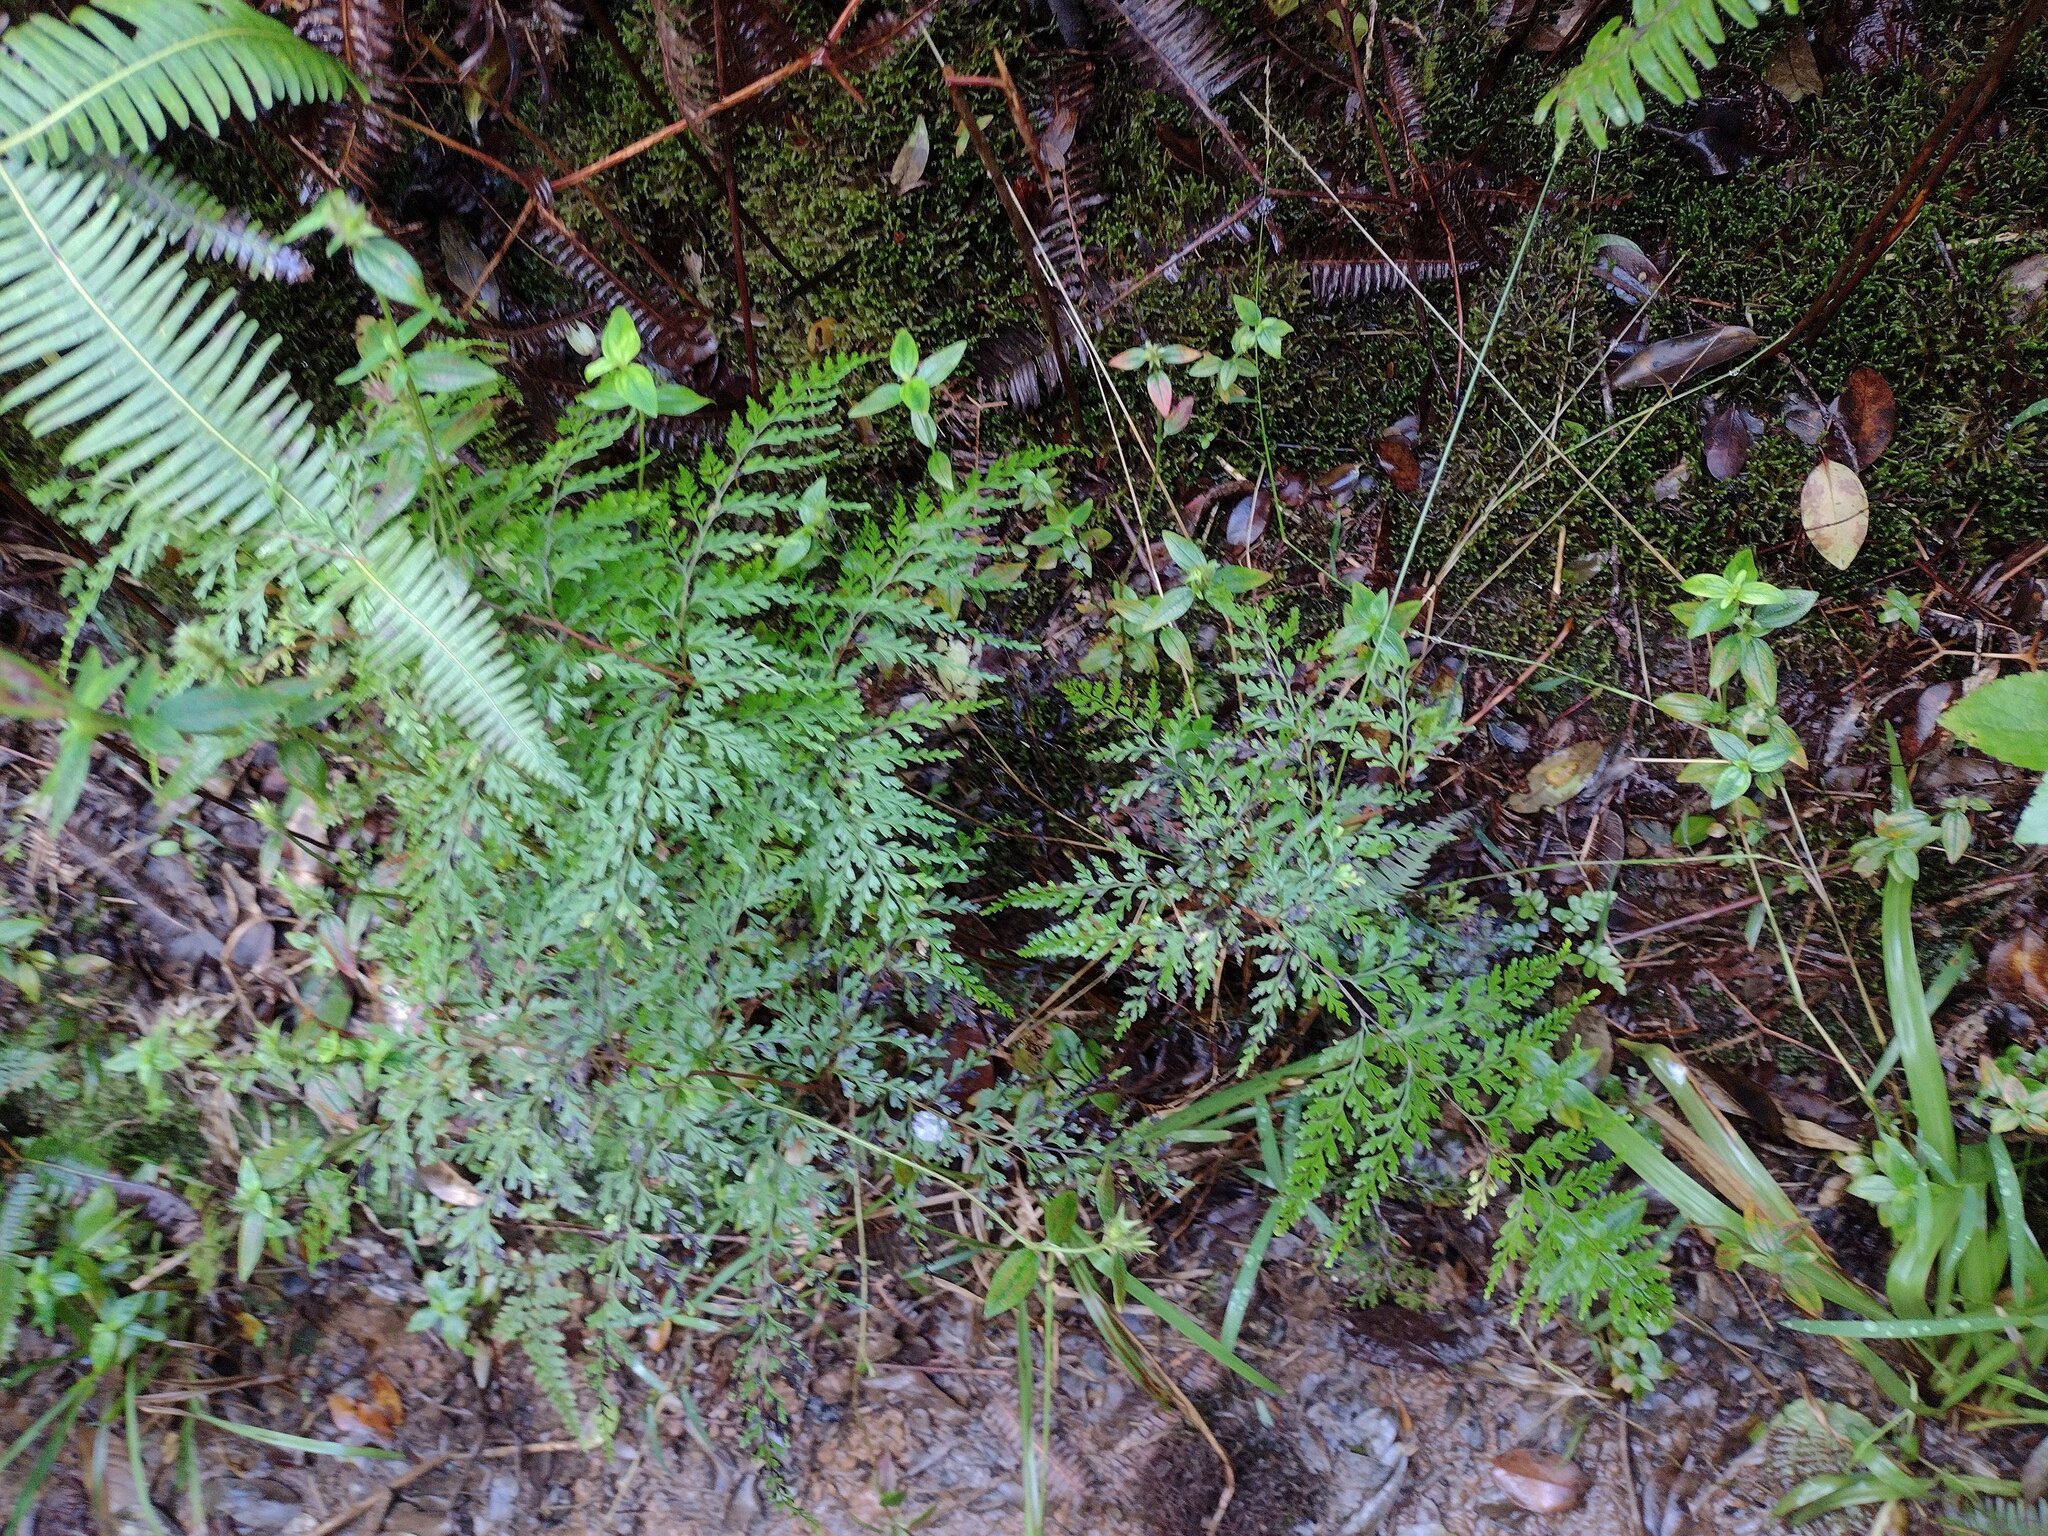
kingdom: Plantae
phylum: Tracheophyta
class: Polypodiopsida
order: Polypodiales
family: Lindsaeaceae
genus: Odontosoria
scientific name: Odontosoria chinensis
